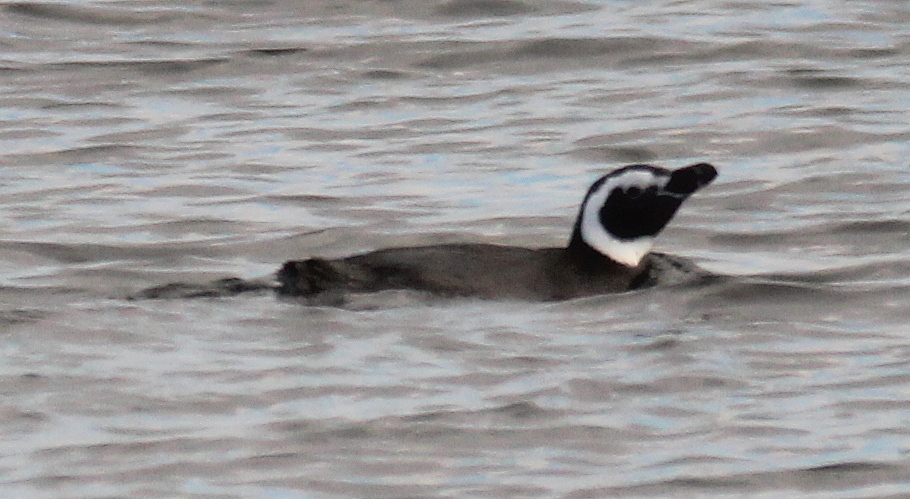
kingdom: Animalia
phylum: Chordata
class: Aves
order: Sphenisciformes
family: Spheniscidae
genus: Spheniscus
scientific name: Spheniscus magellanicus
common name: Magellanic penguin
